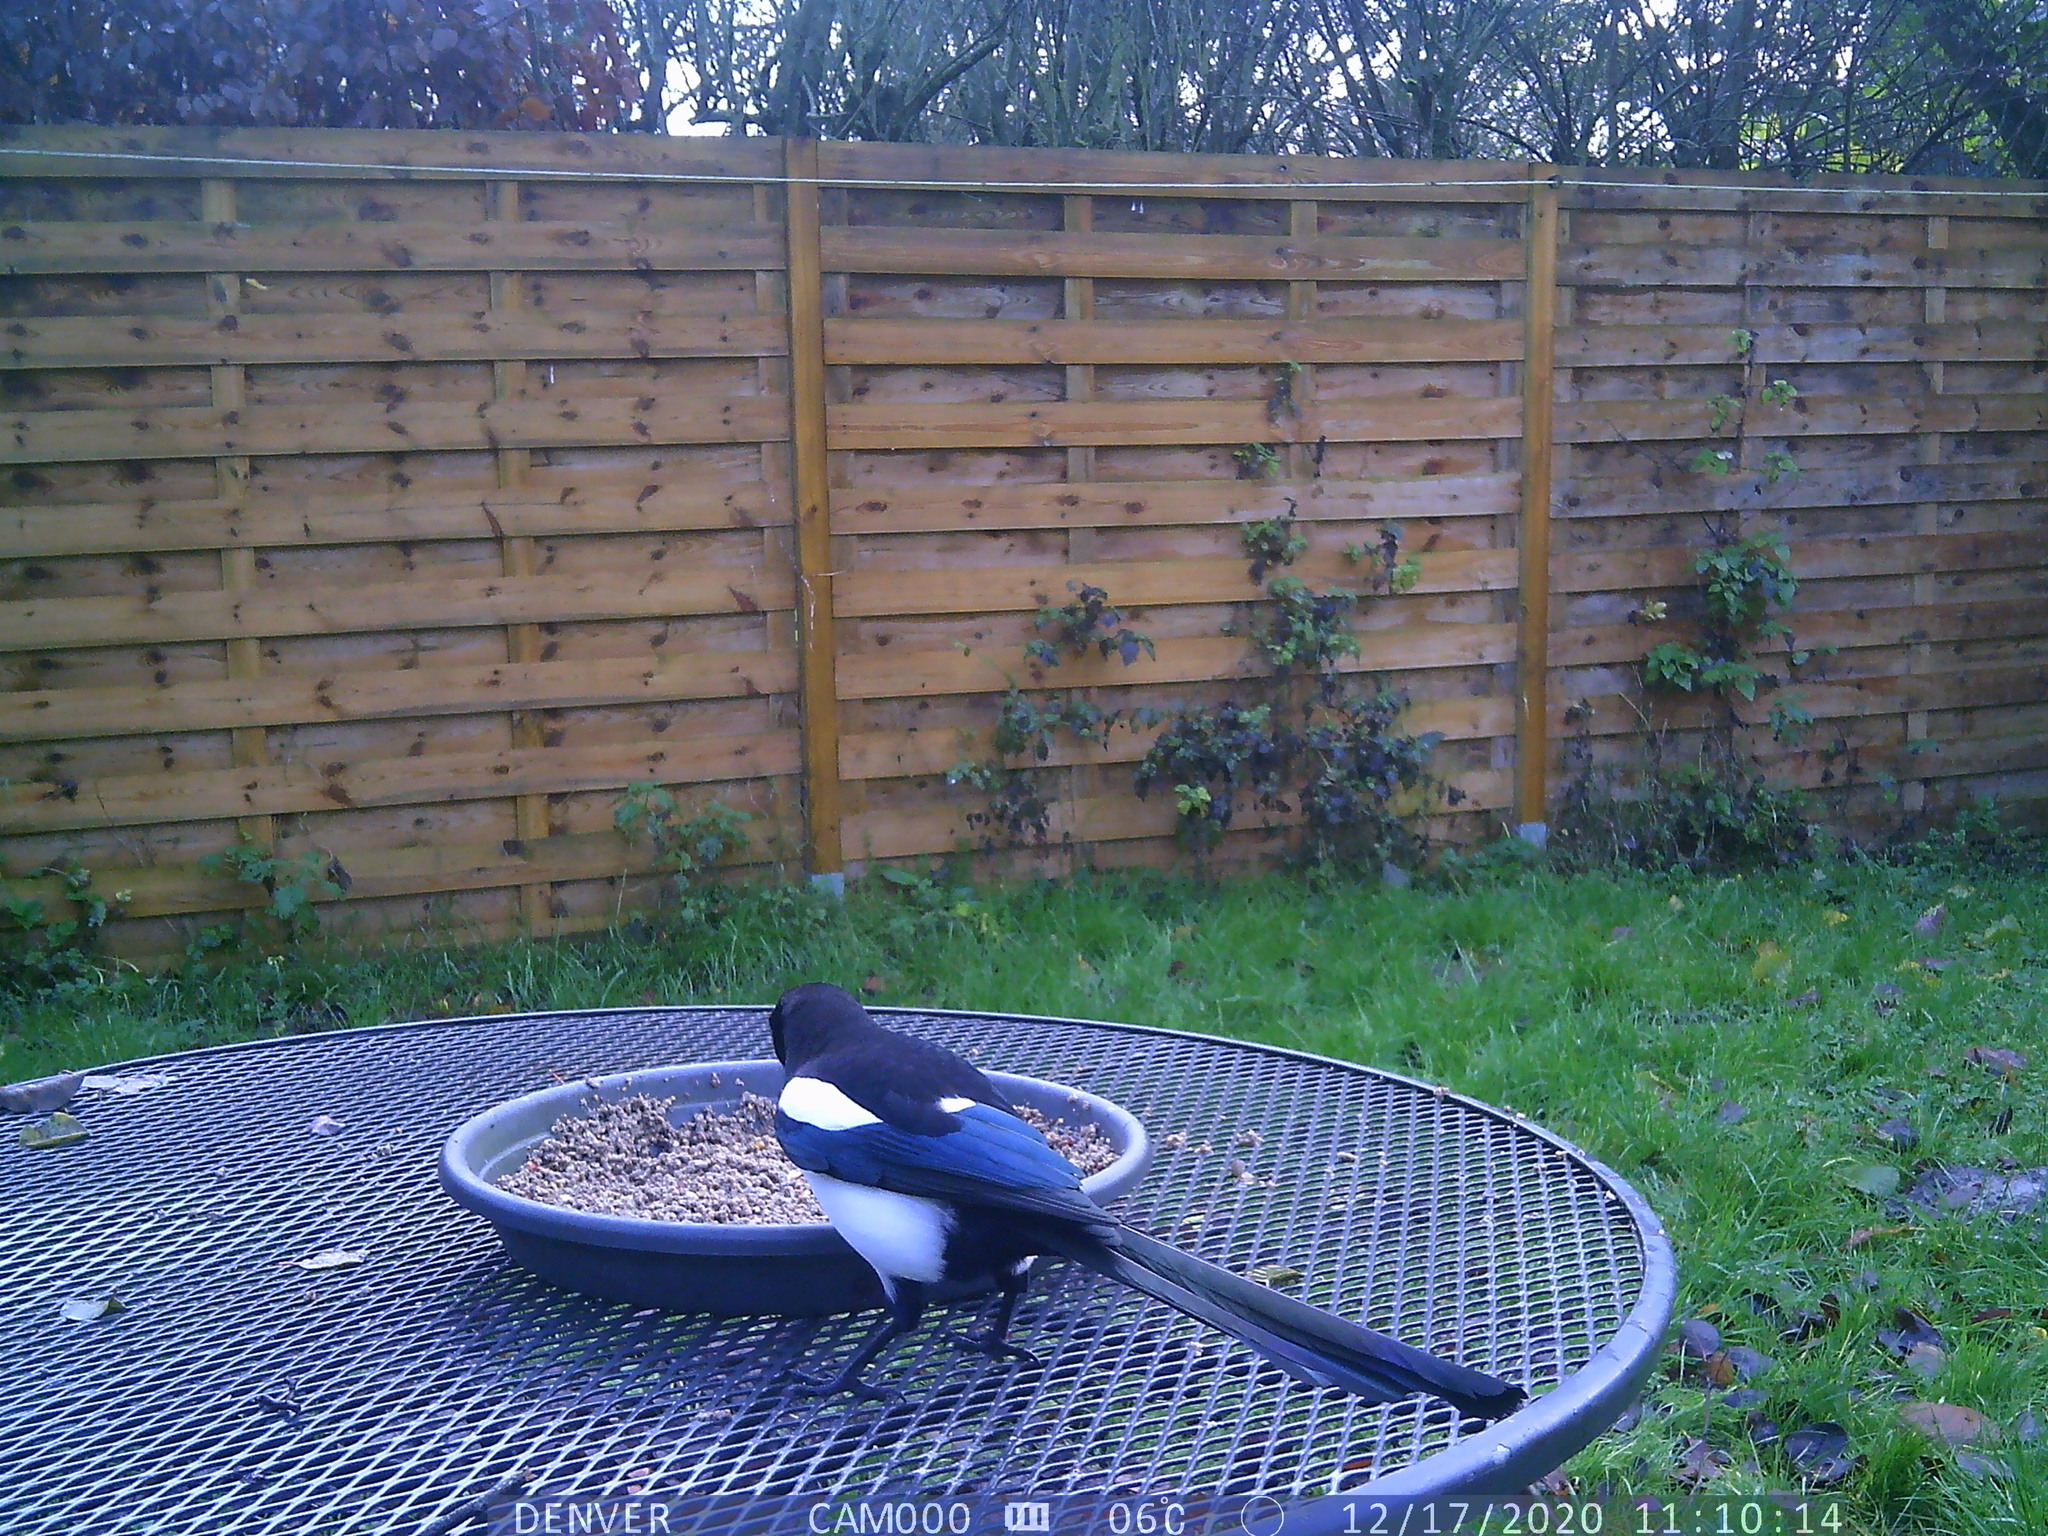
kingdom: Animalia
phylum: Chordata
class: Aves
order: Passeriformes
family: Corvidae
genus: Pica
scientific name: Pica pica
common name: Eurasian magpie
